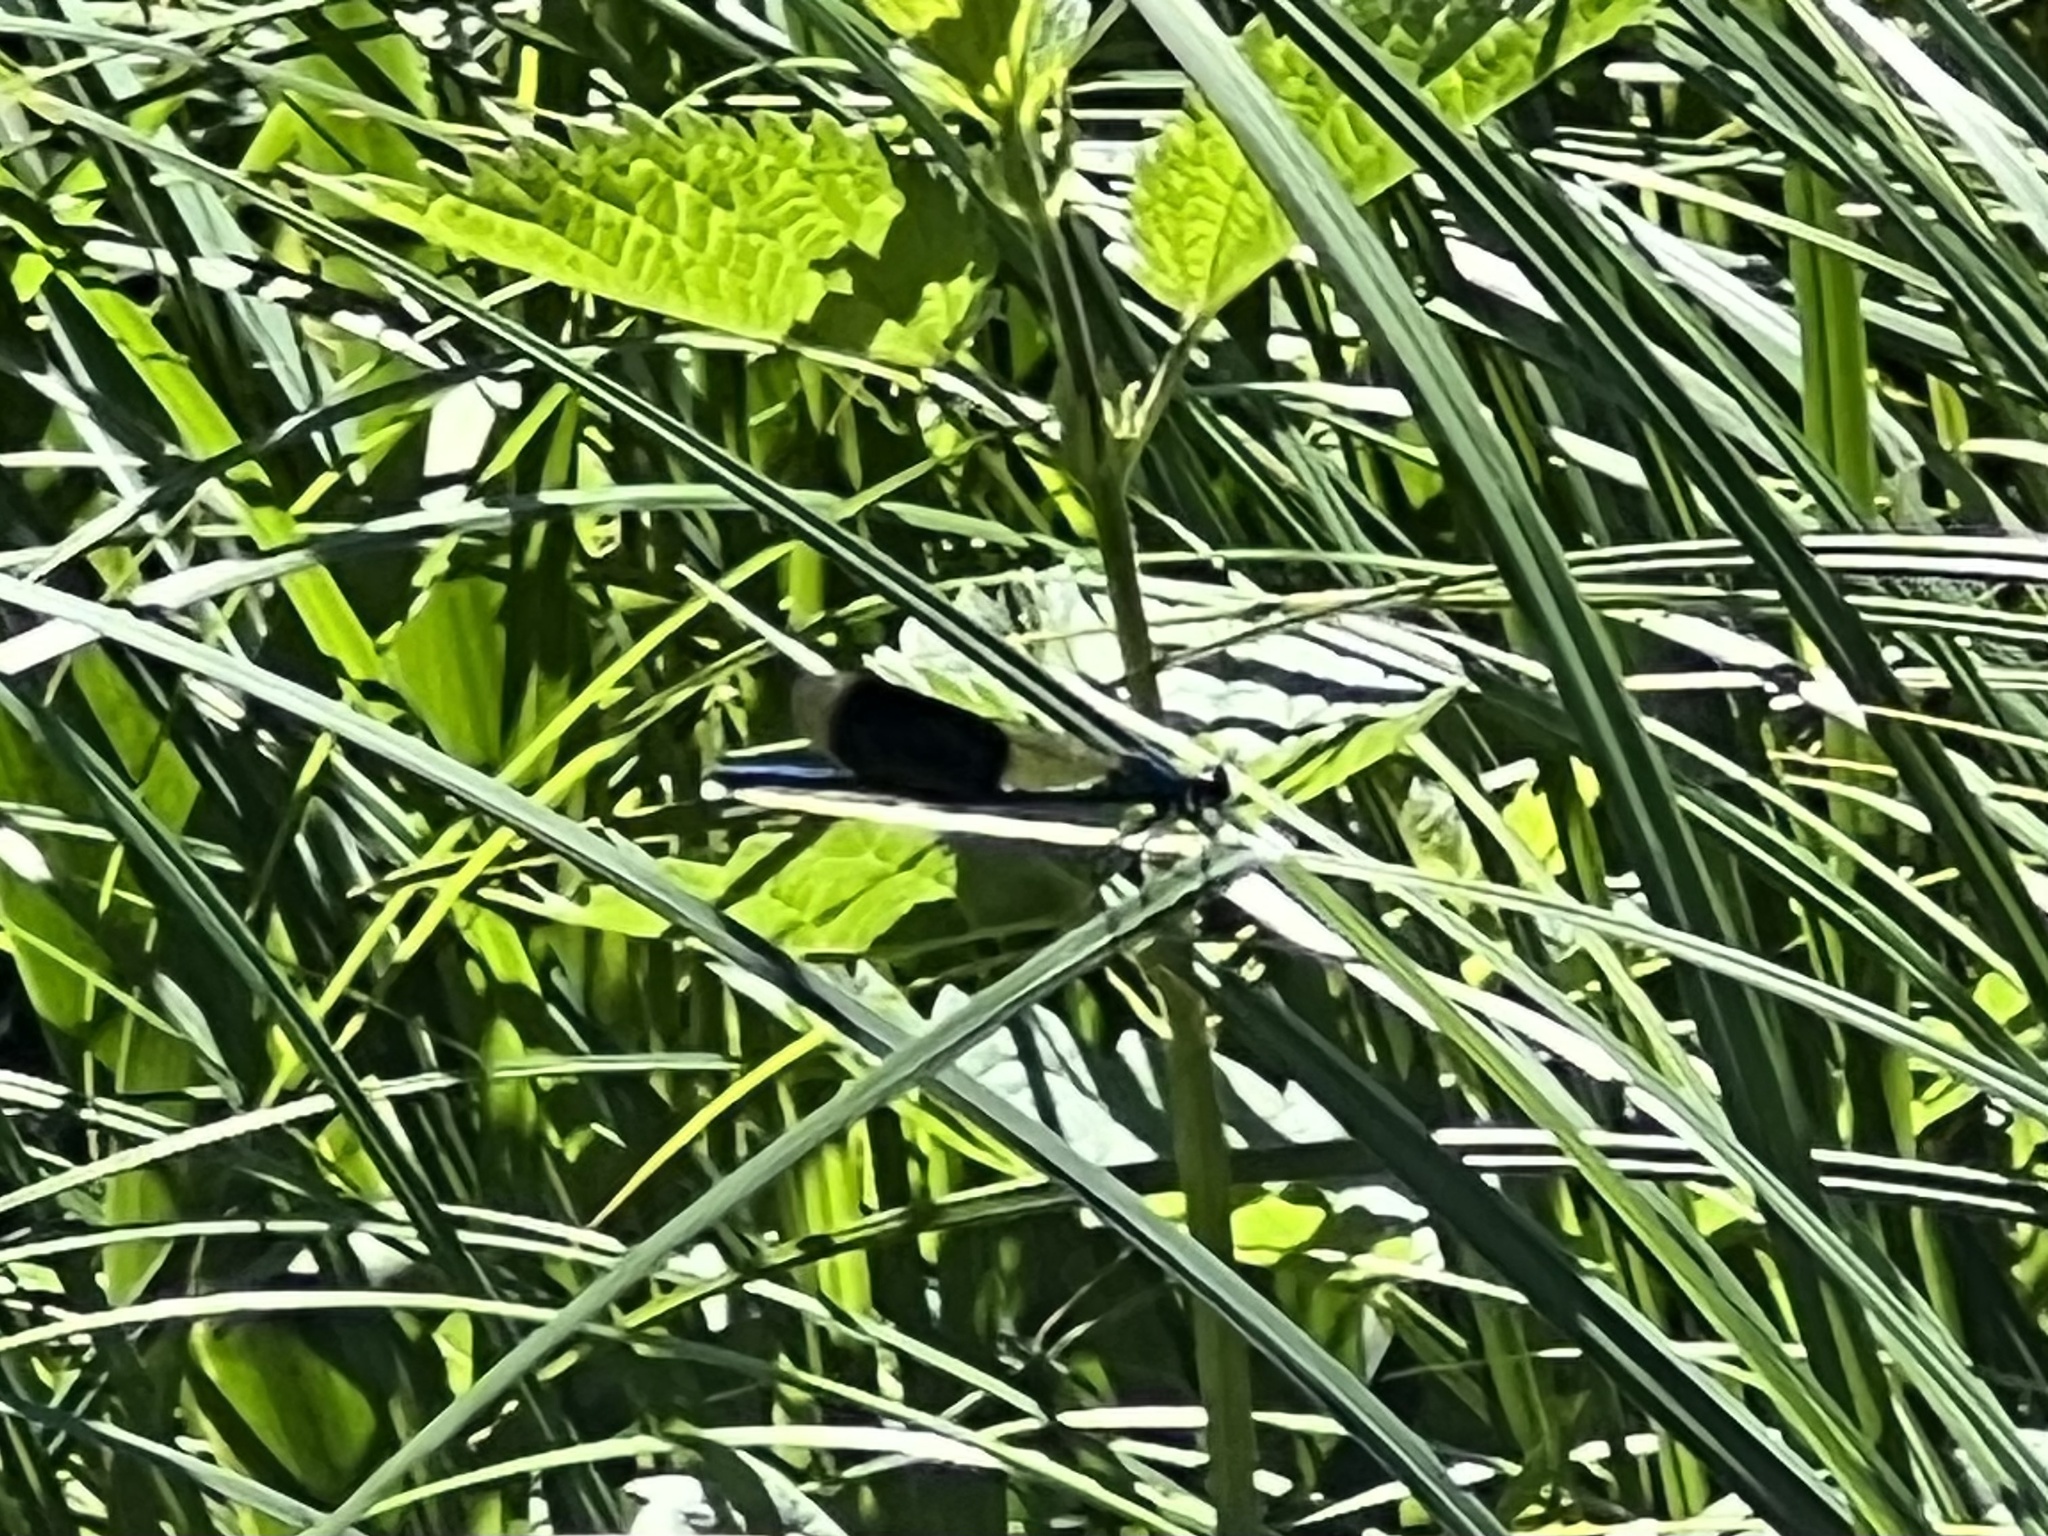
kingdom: Animalia
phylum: Arthropoda
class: Insecta
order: Odonata
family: Calopterygidae
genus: Calopteryx
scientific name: Calopteryx splendens
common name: Banded demoiselle
